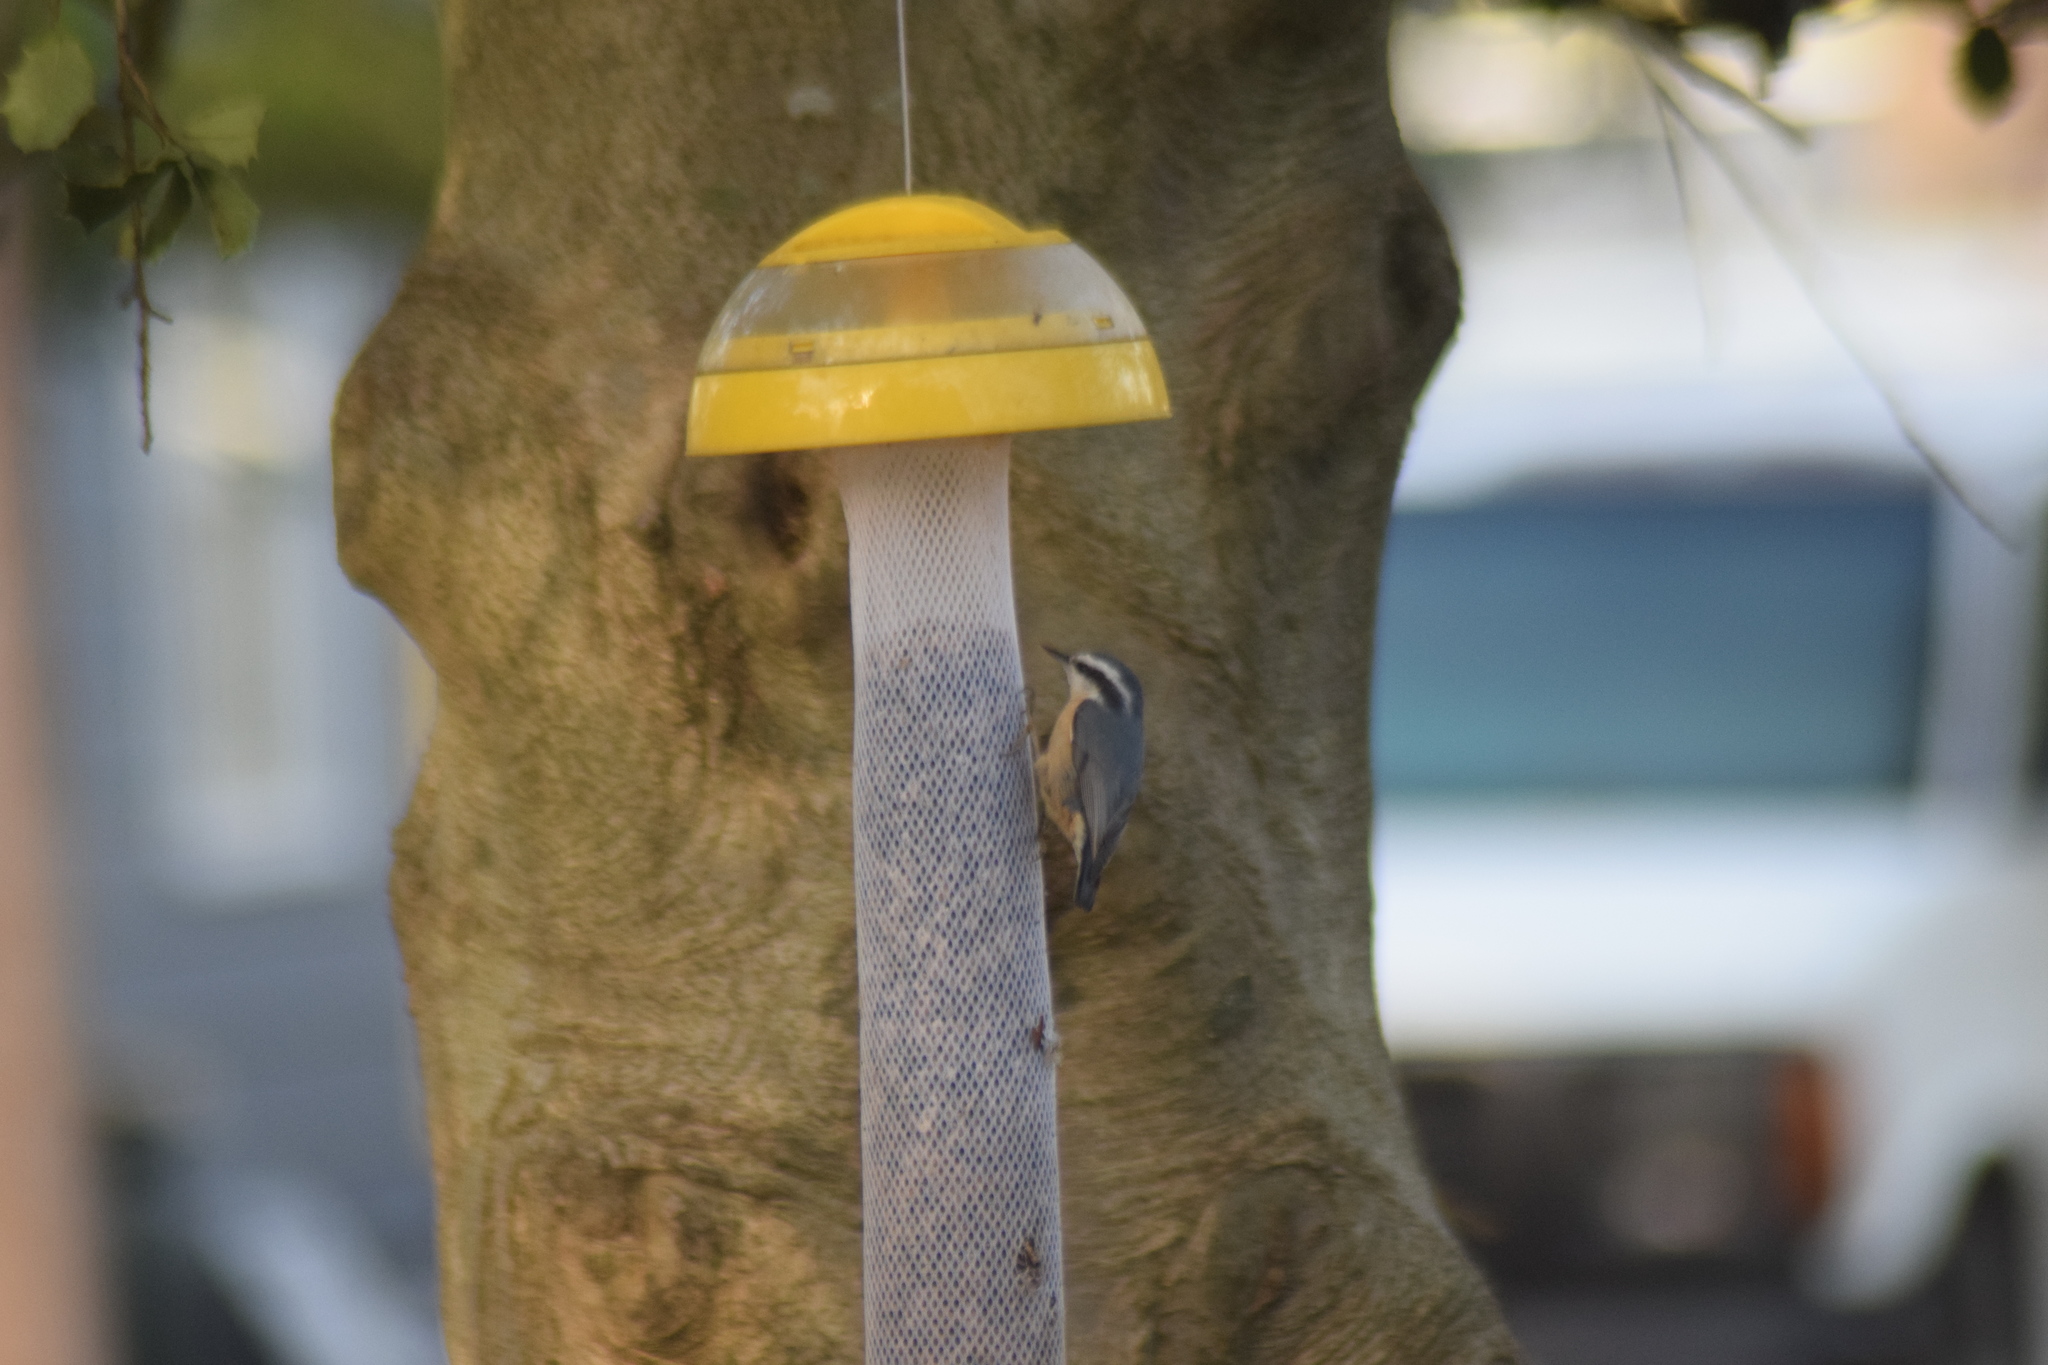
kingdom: Animalia
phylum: Chordata
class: Aves
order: Passeriformes
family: Sittidae
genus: Sitta
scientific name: Sitta canadensis
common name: Red-breasted nuthatch
